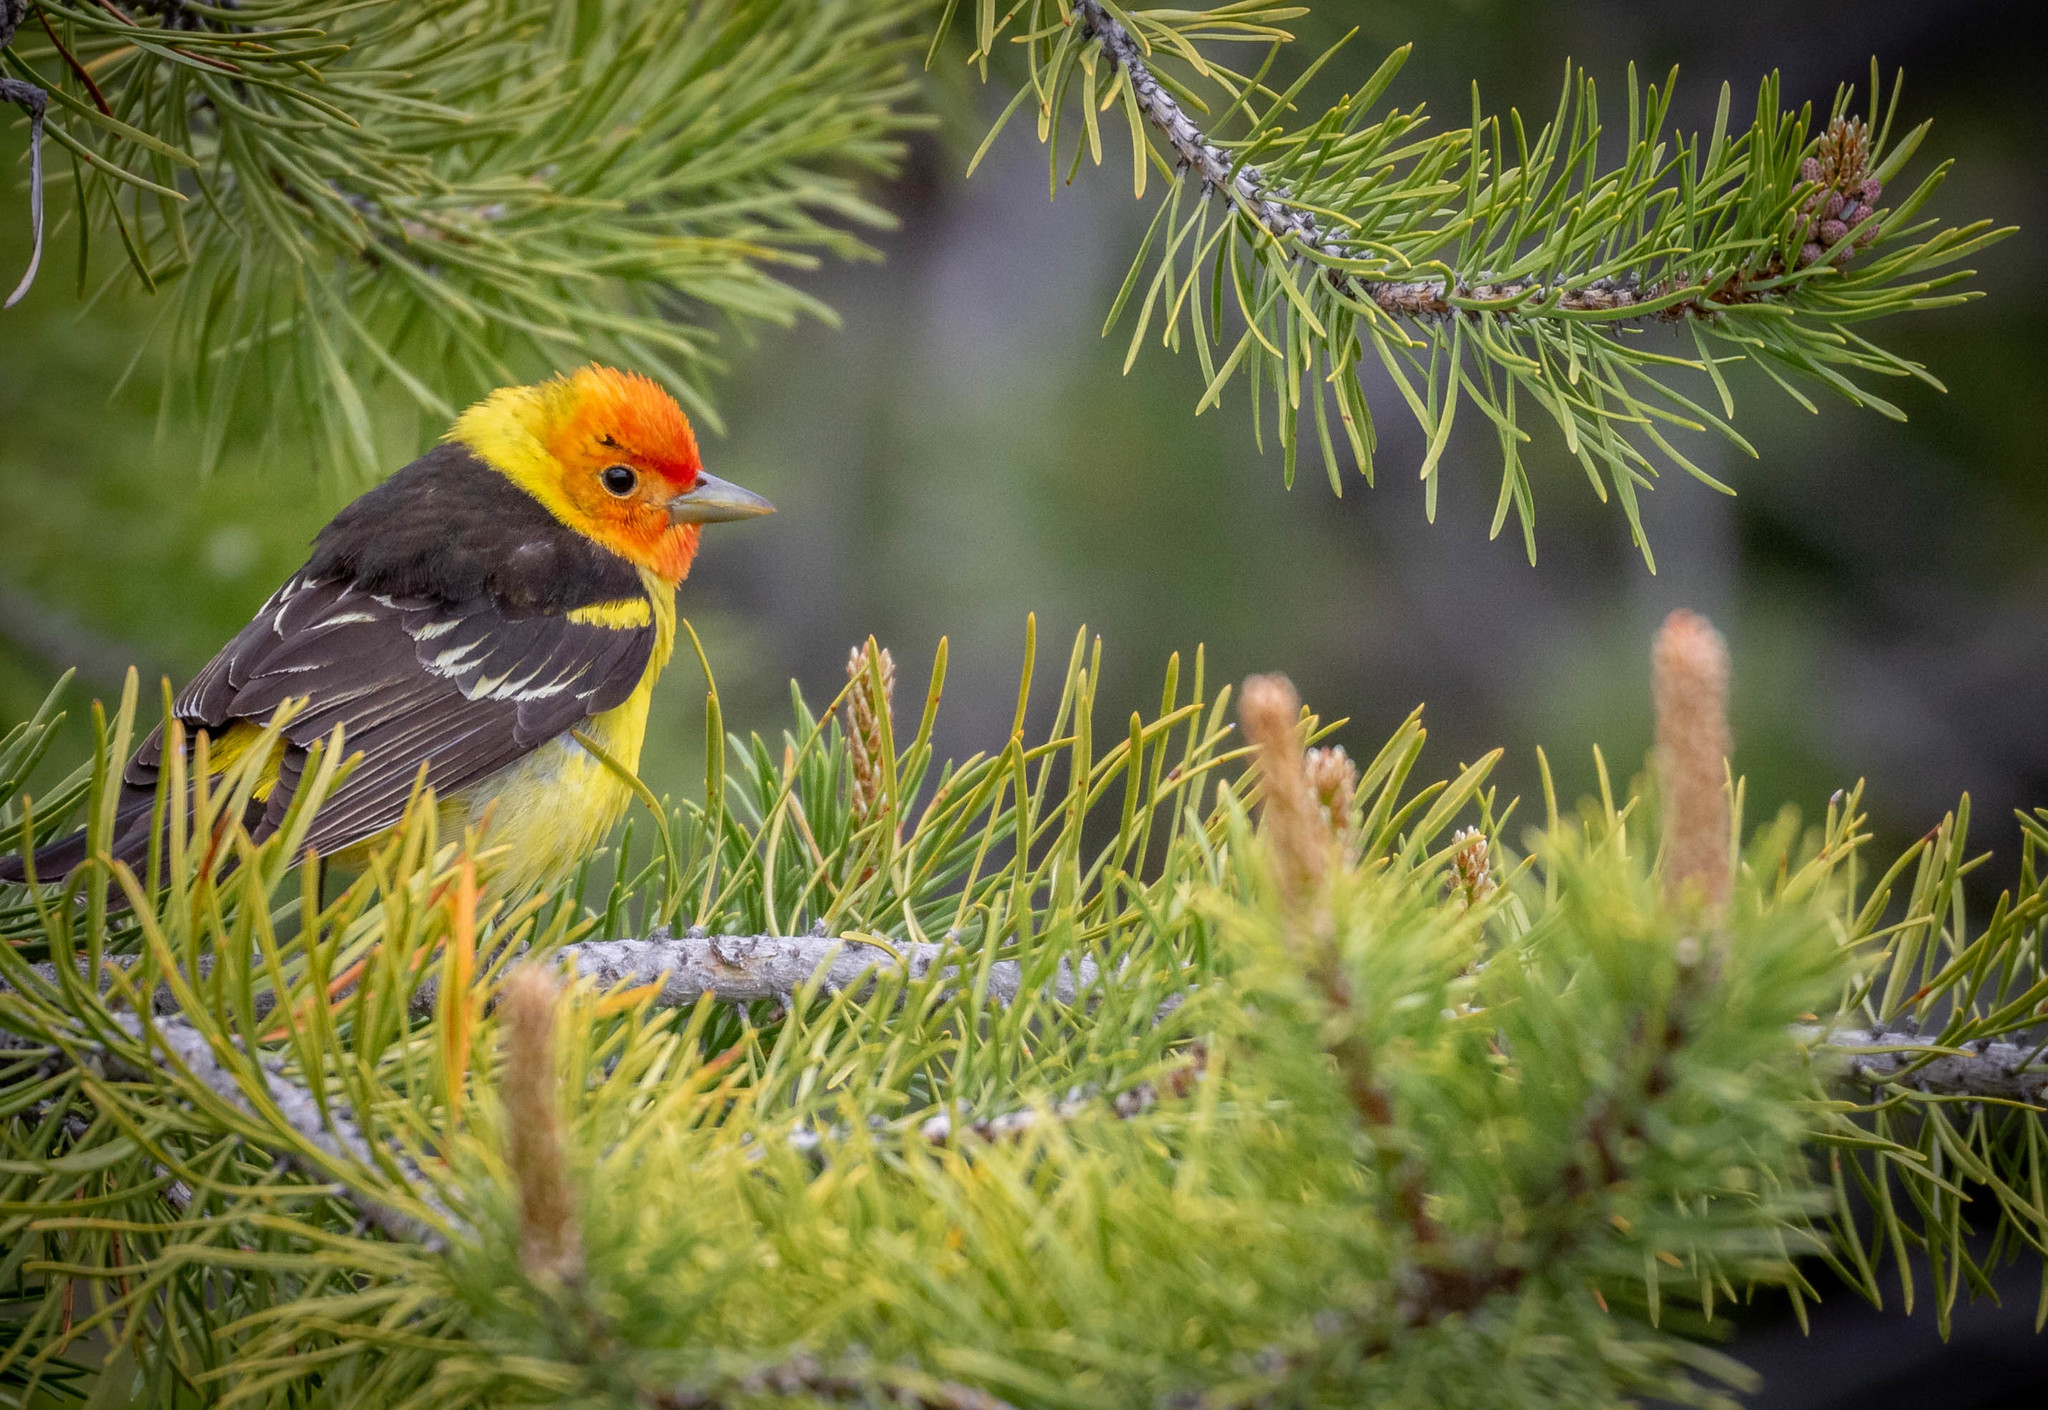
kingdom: Animalia
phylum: Chordata
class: Aves
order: Passeriformes
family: Cardinalidae
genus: Piranga
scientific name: Piranga ludoviciana
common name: Western tanager
